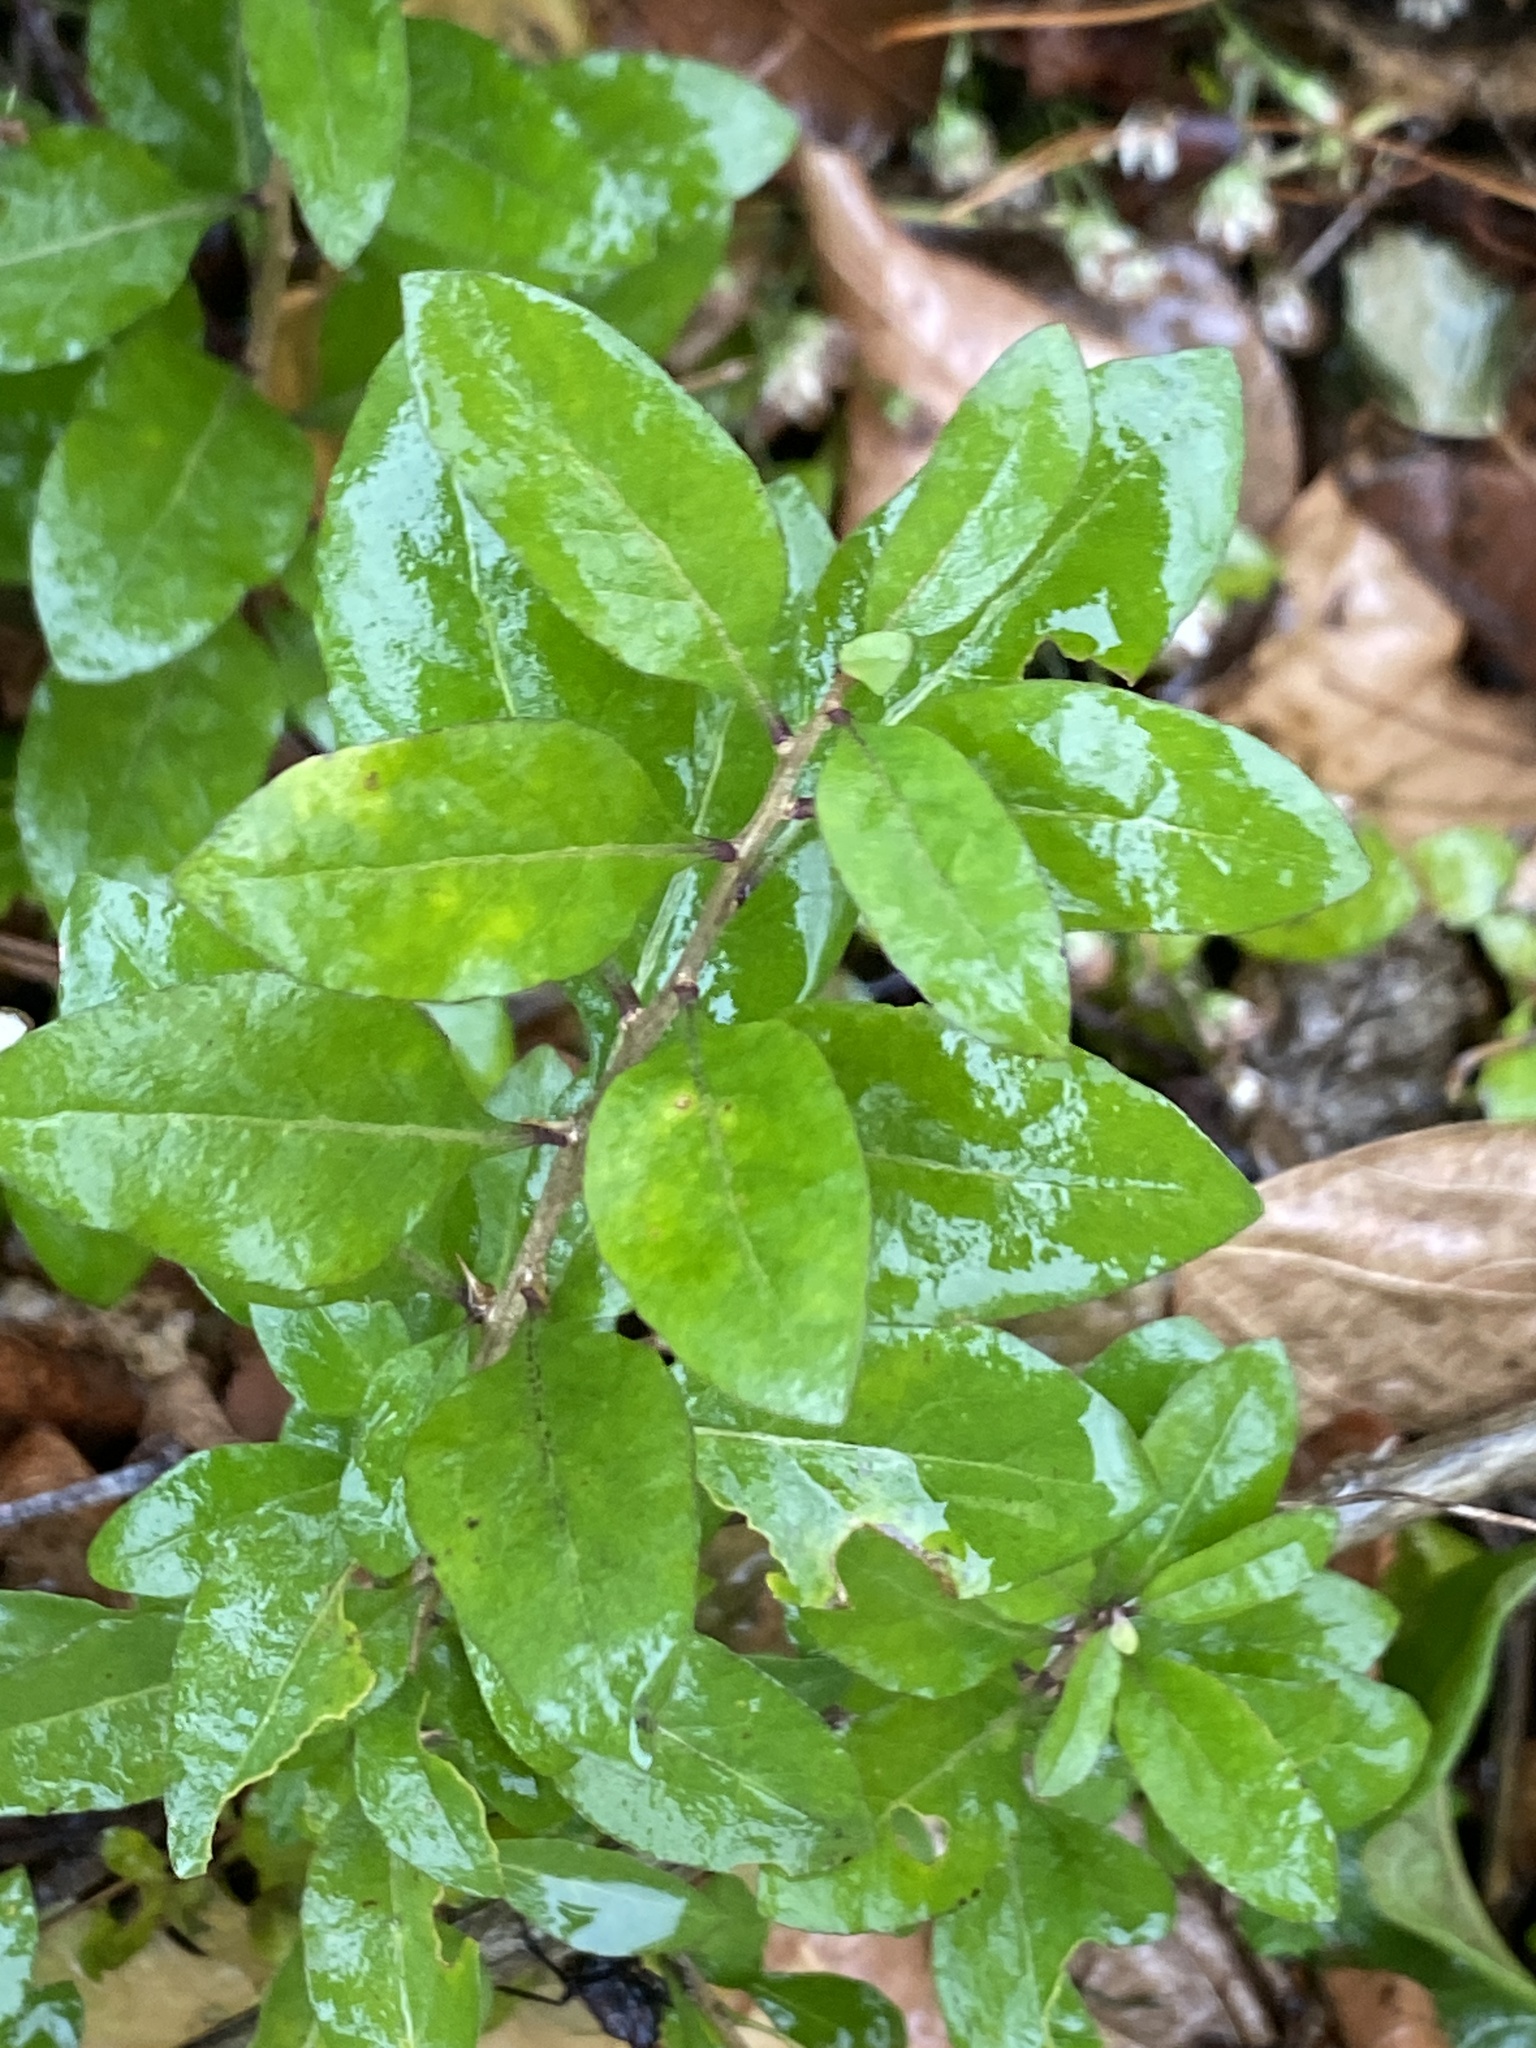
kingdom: Plantae
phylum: Tracheophyta
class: Magnoliopsida
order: Solanales
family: Solanaceae
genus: Lycium
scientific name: Lycium barbarum
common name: Duke of argyll's teaplant
